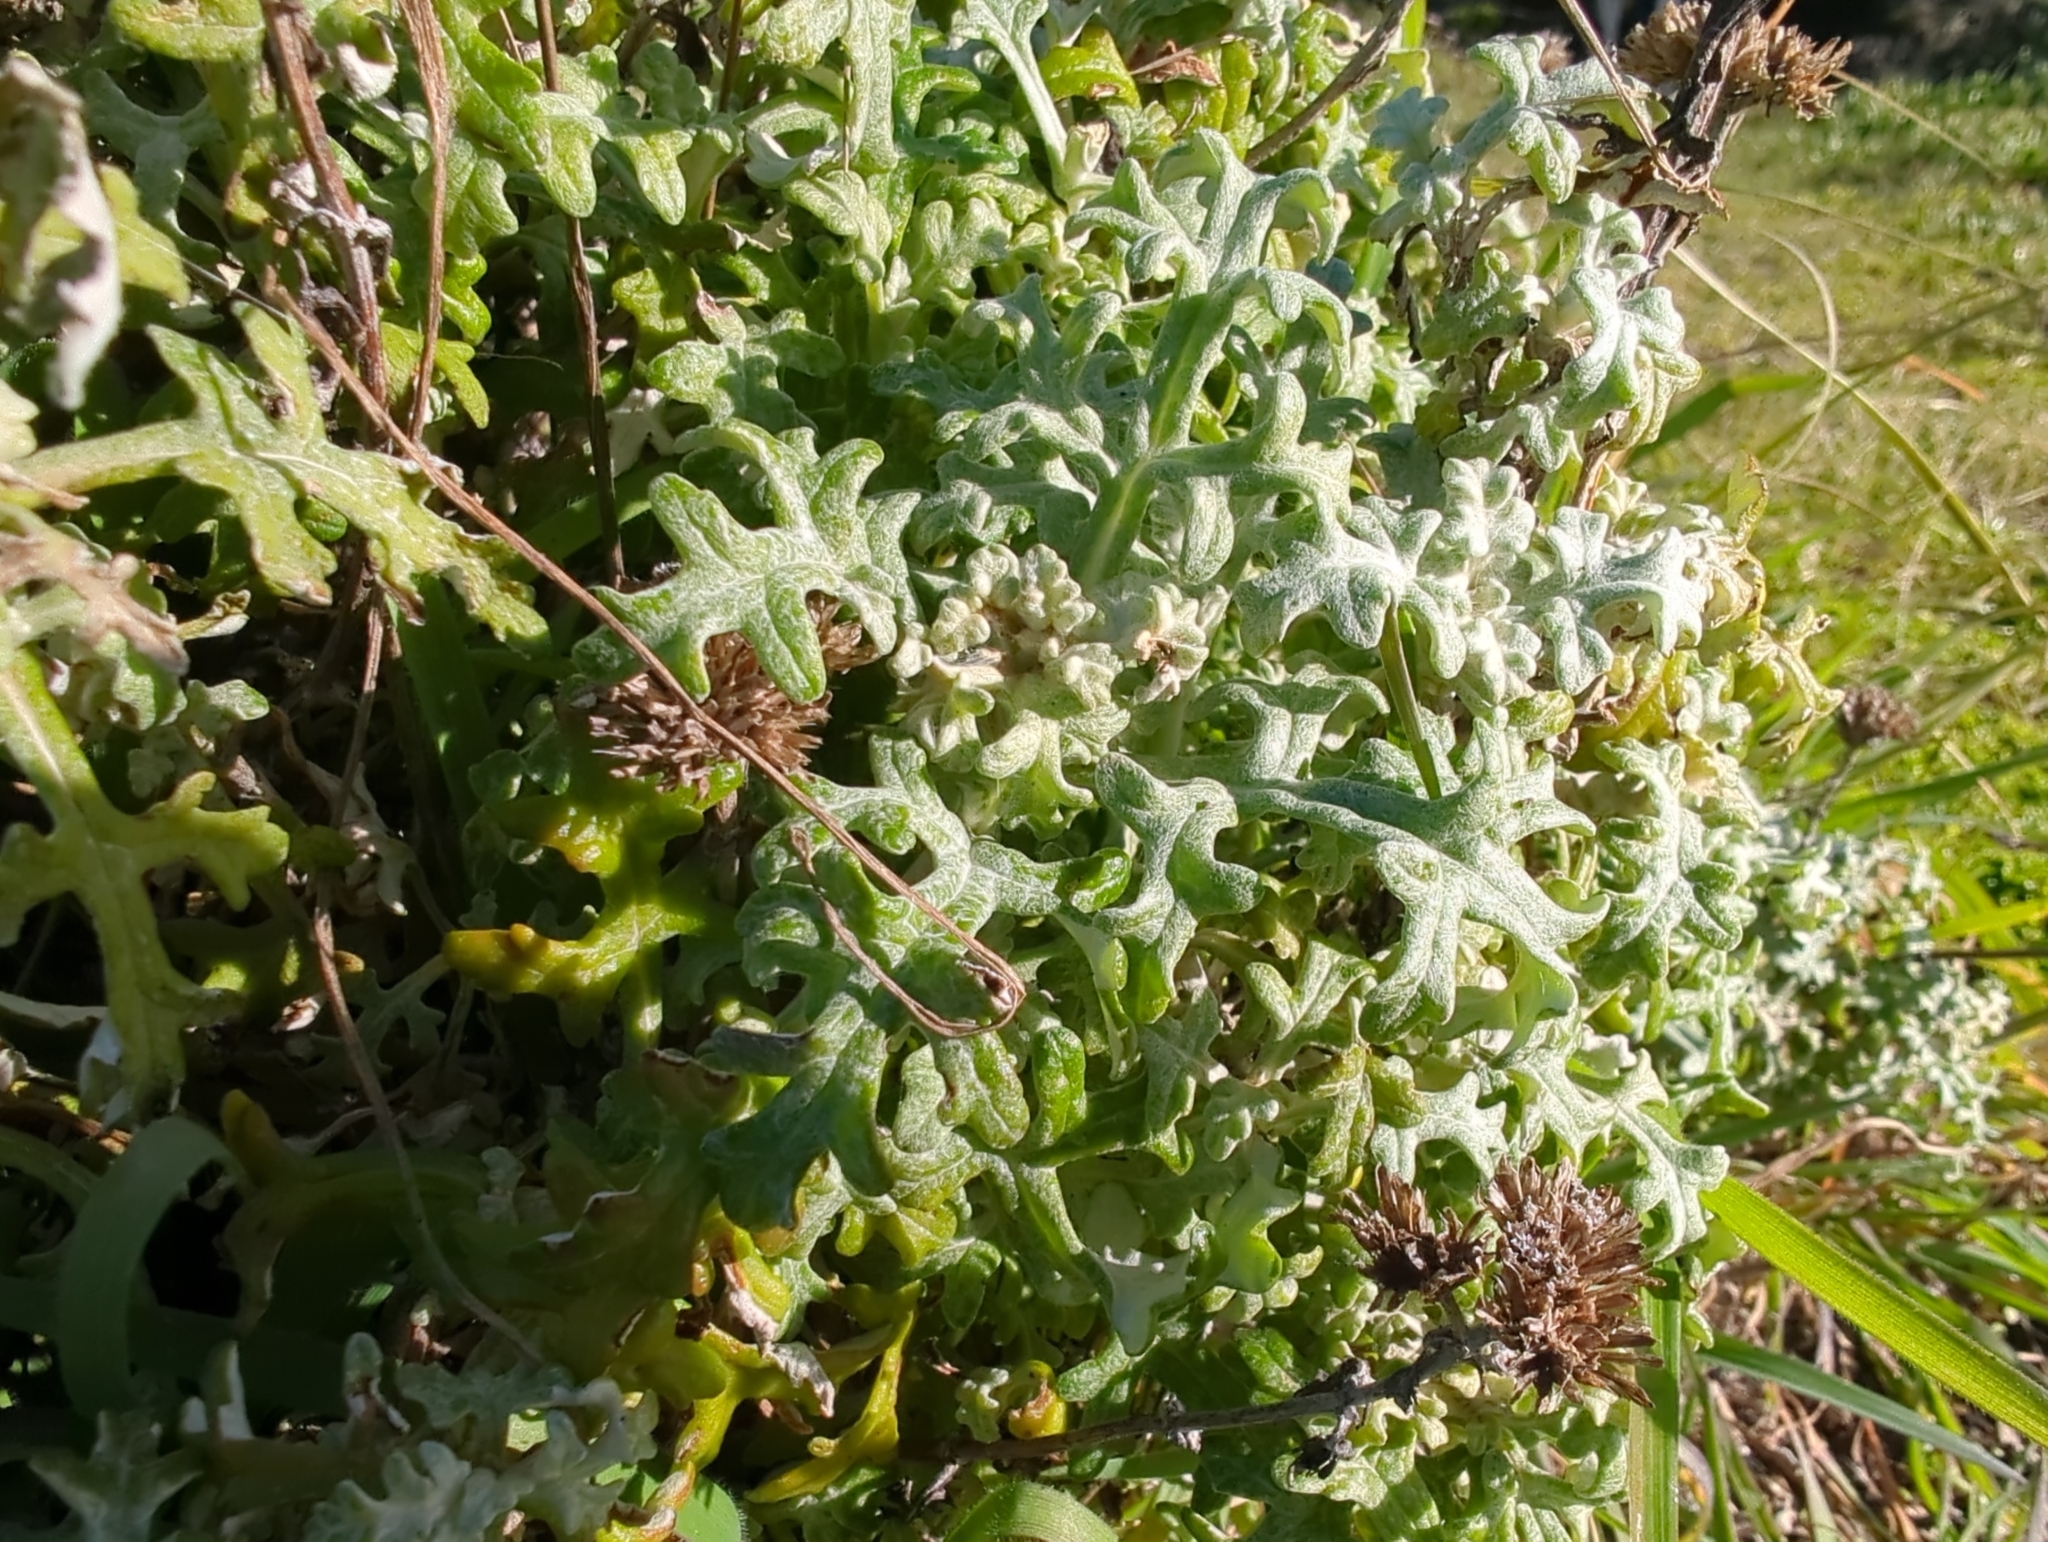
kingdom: Plantae
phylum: Tracheophyta
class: Magnoliopsida
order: Asterales
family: Asteraceae
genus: Eriophyllum
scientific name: Eriophyllum staechadifolium
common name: Lizardtail
